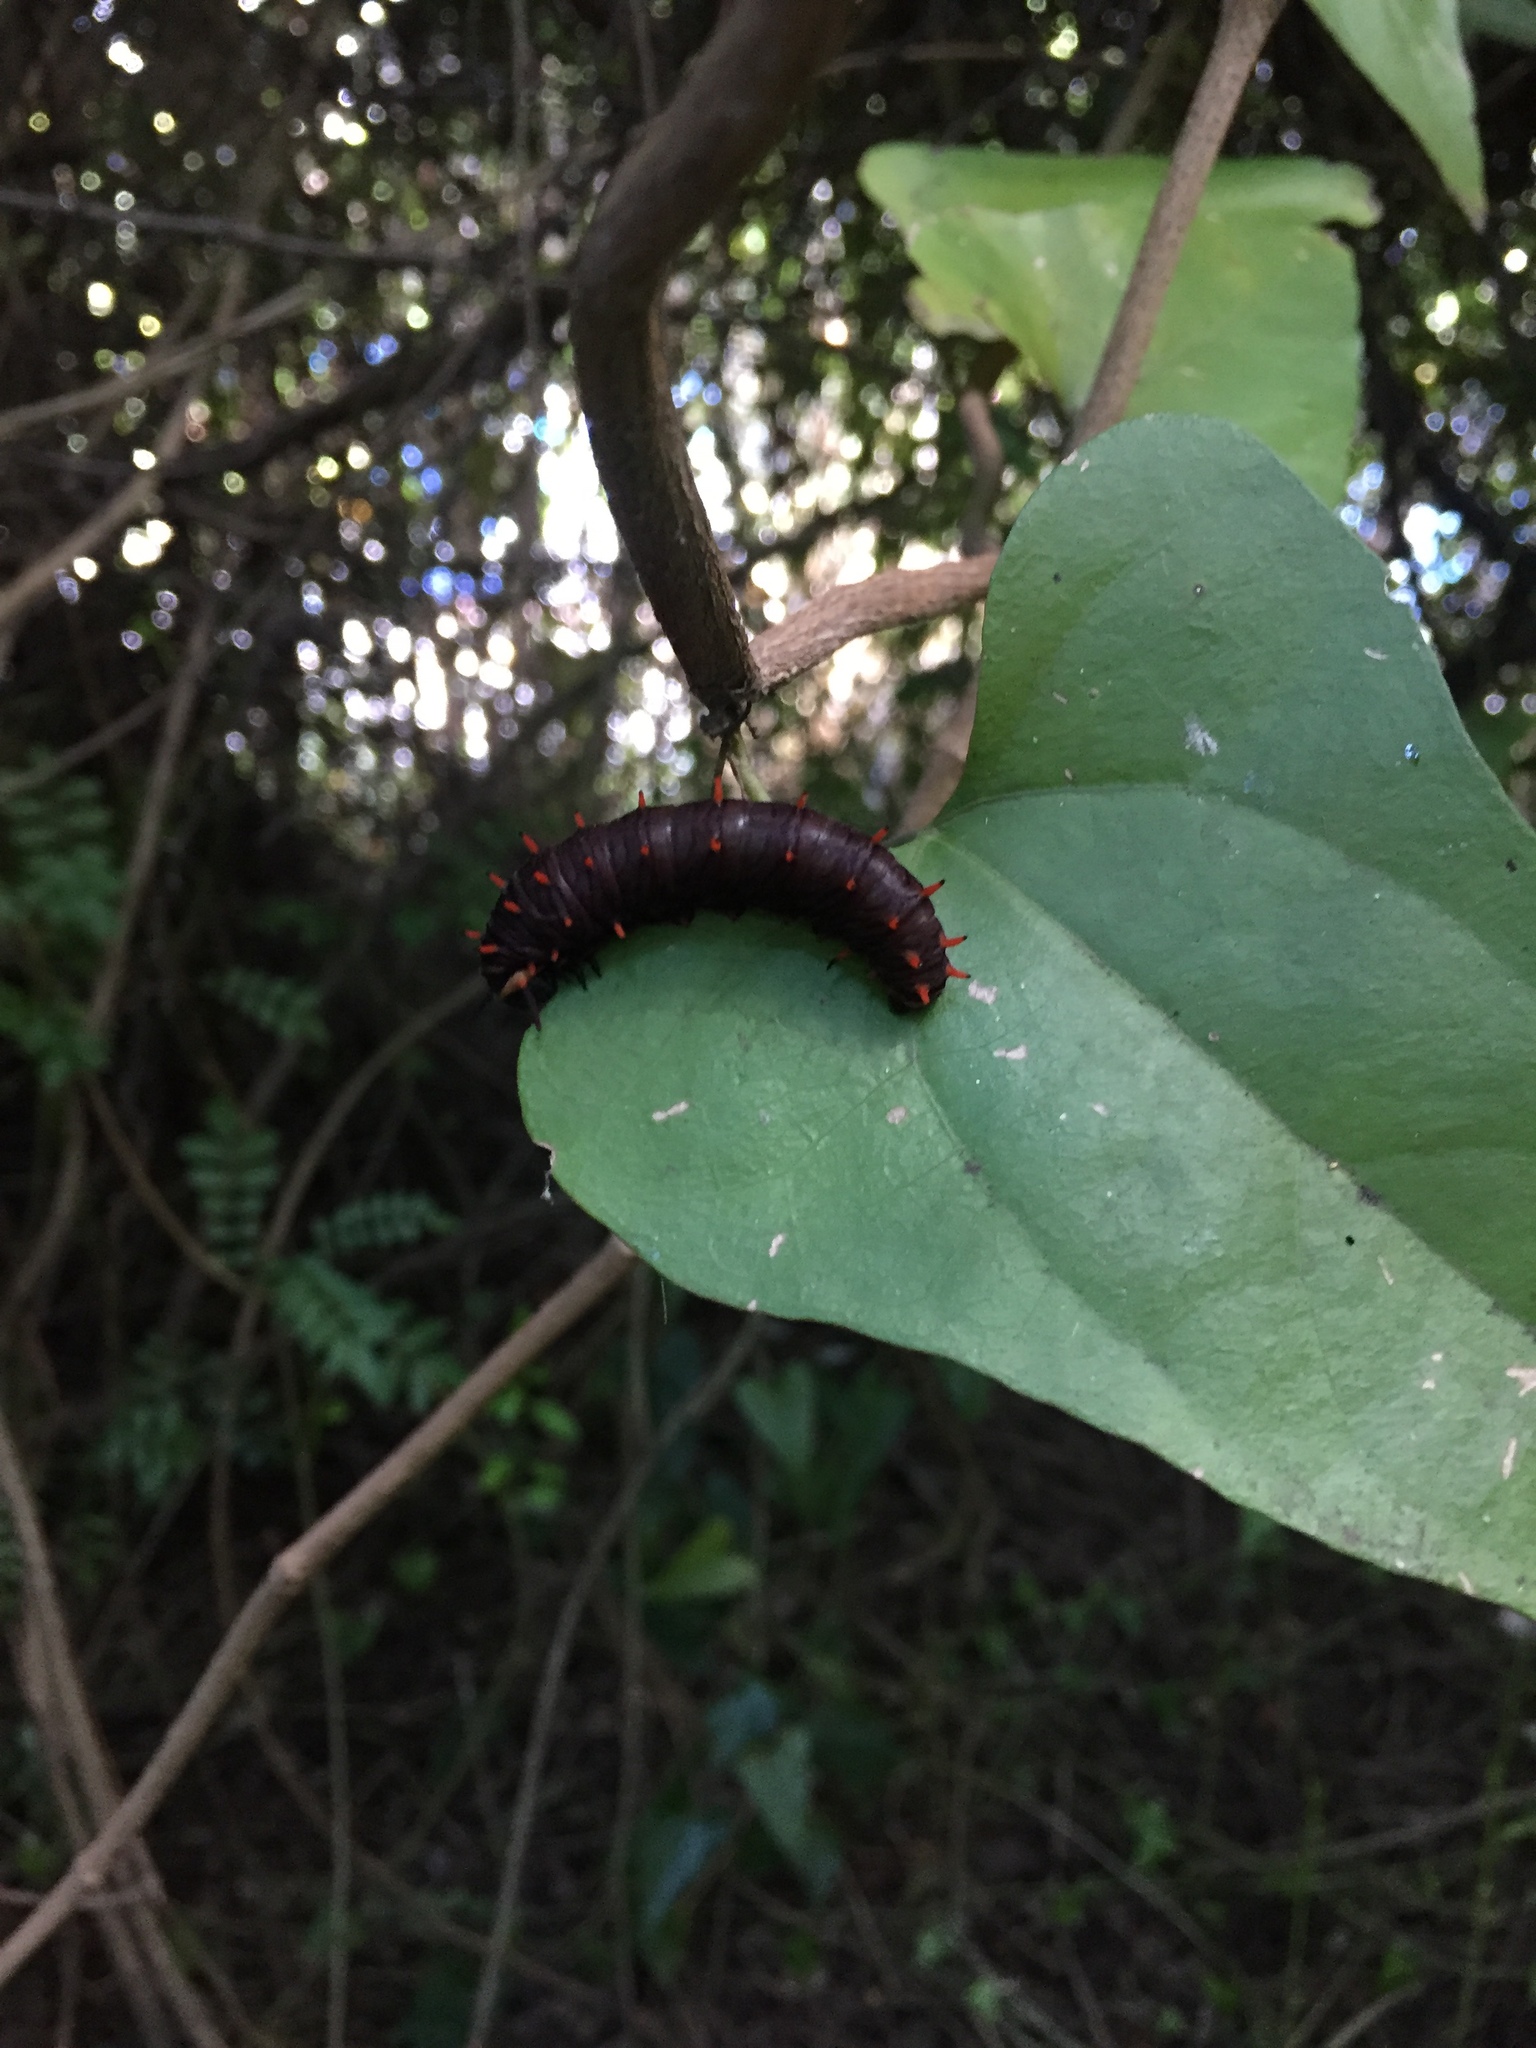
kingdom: Animalia
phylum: Arthropoda
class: Insecta
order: Lepidoptera
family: Papilionidae
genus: Battus
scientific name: Battus polydamas
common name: Polydamas swallowtail
